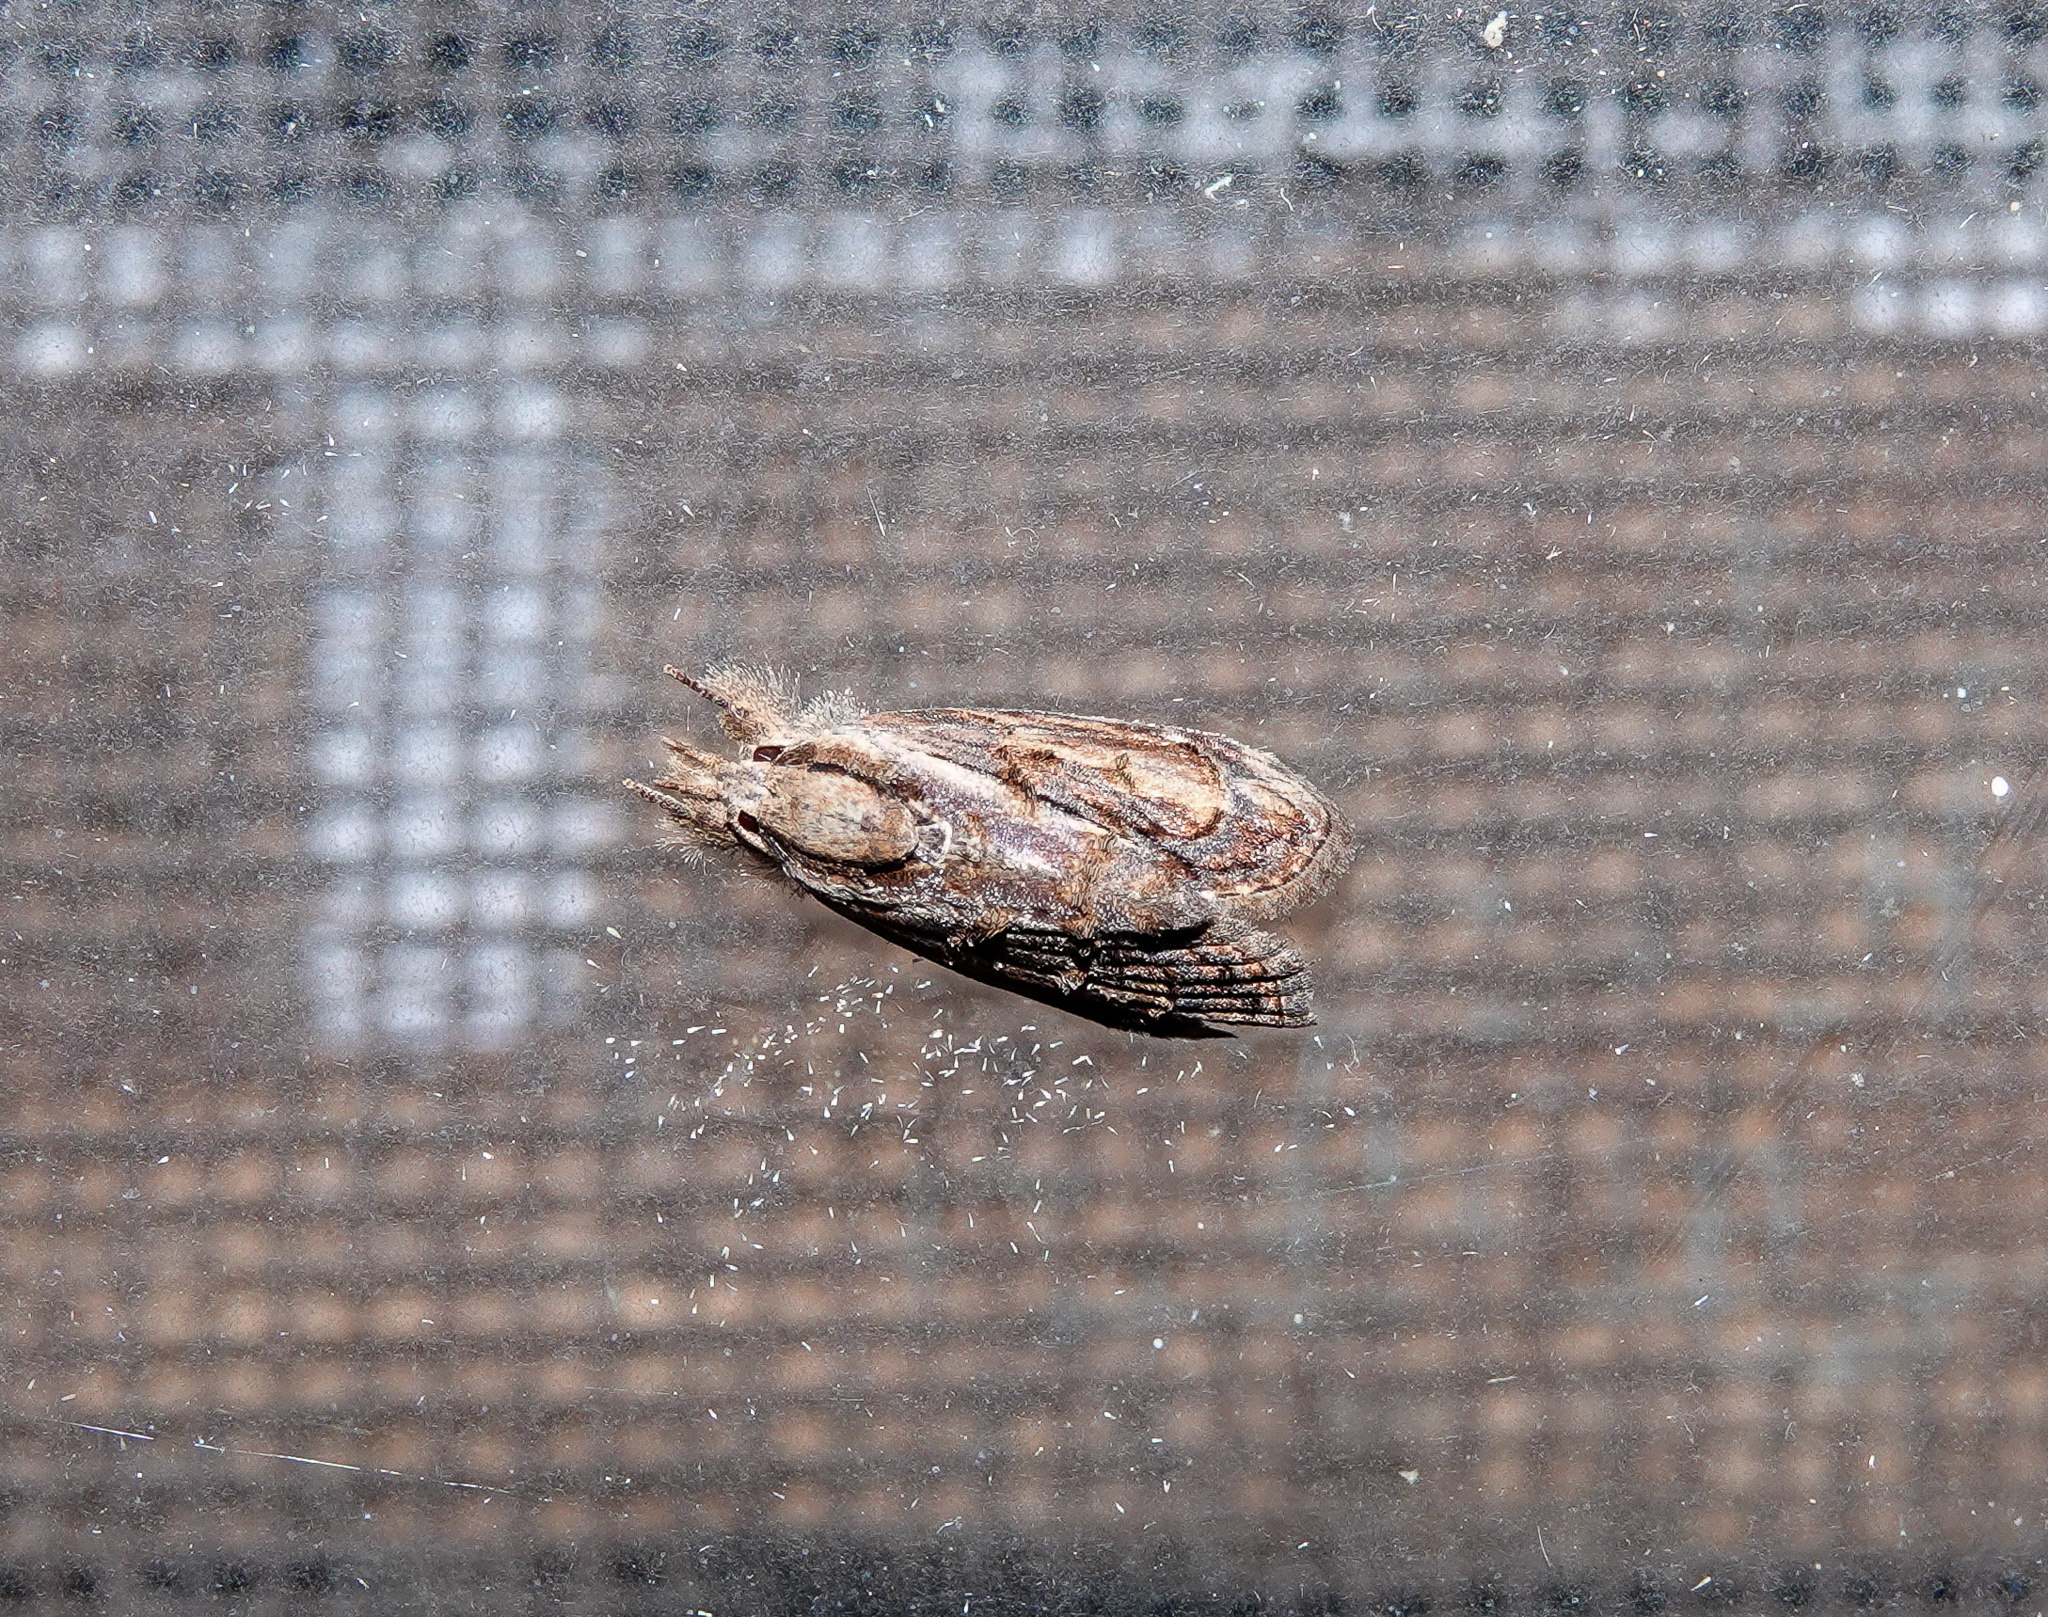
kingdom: Animalia
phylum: Arthropoda
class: Insecta
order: Lepidoptera
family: Nolidae
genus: Selepa
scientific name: Selepa discigera
